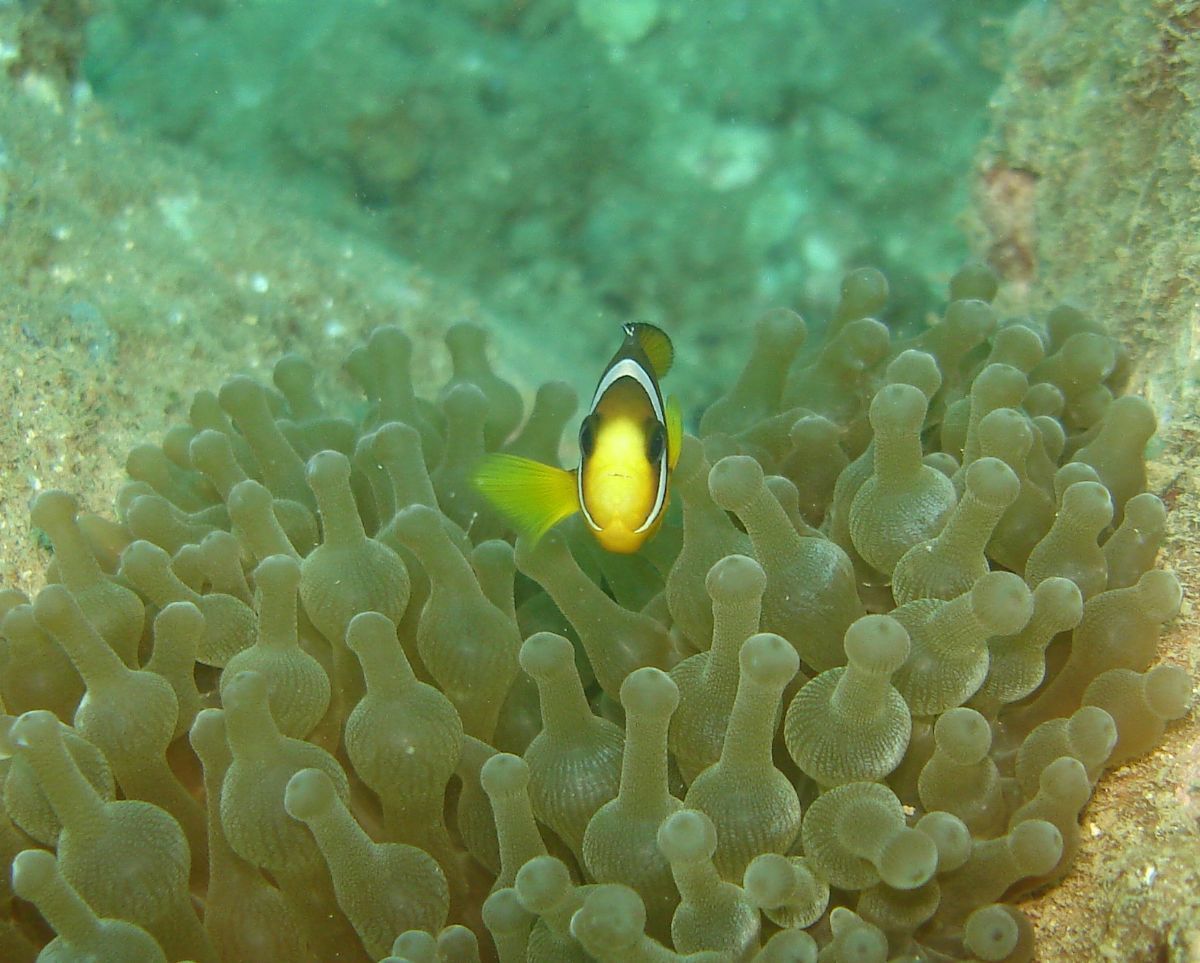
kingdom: Animalia
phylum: Chordata
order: Perciformes
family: Pomacentridae
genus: Amphiprion
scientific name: Amphiprion clarkii
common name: Clark's anemonefish
